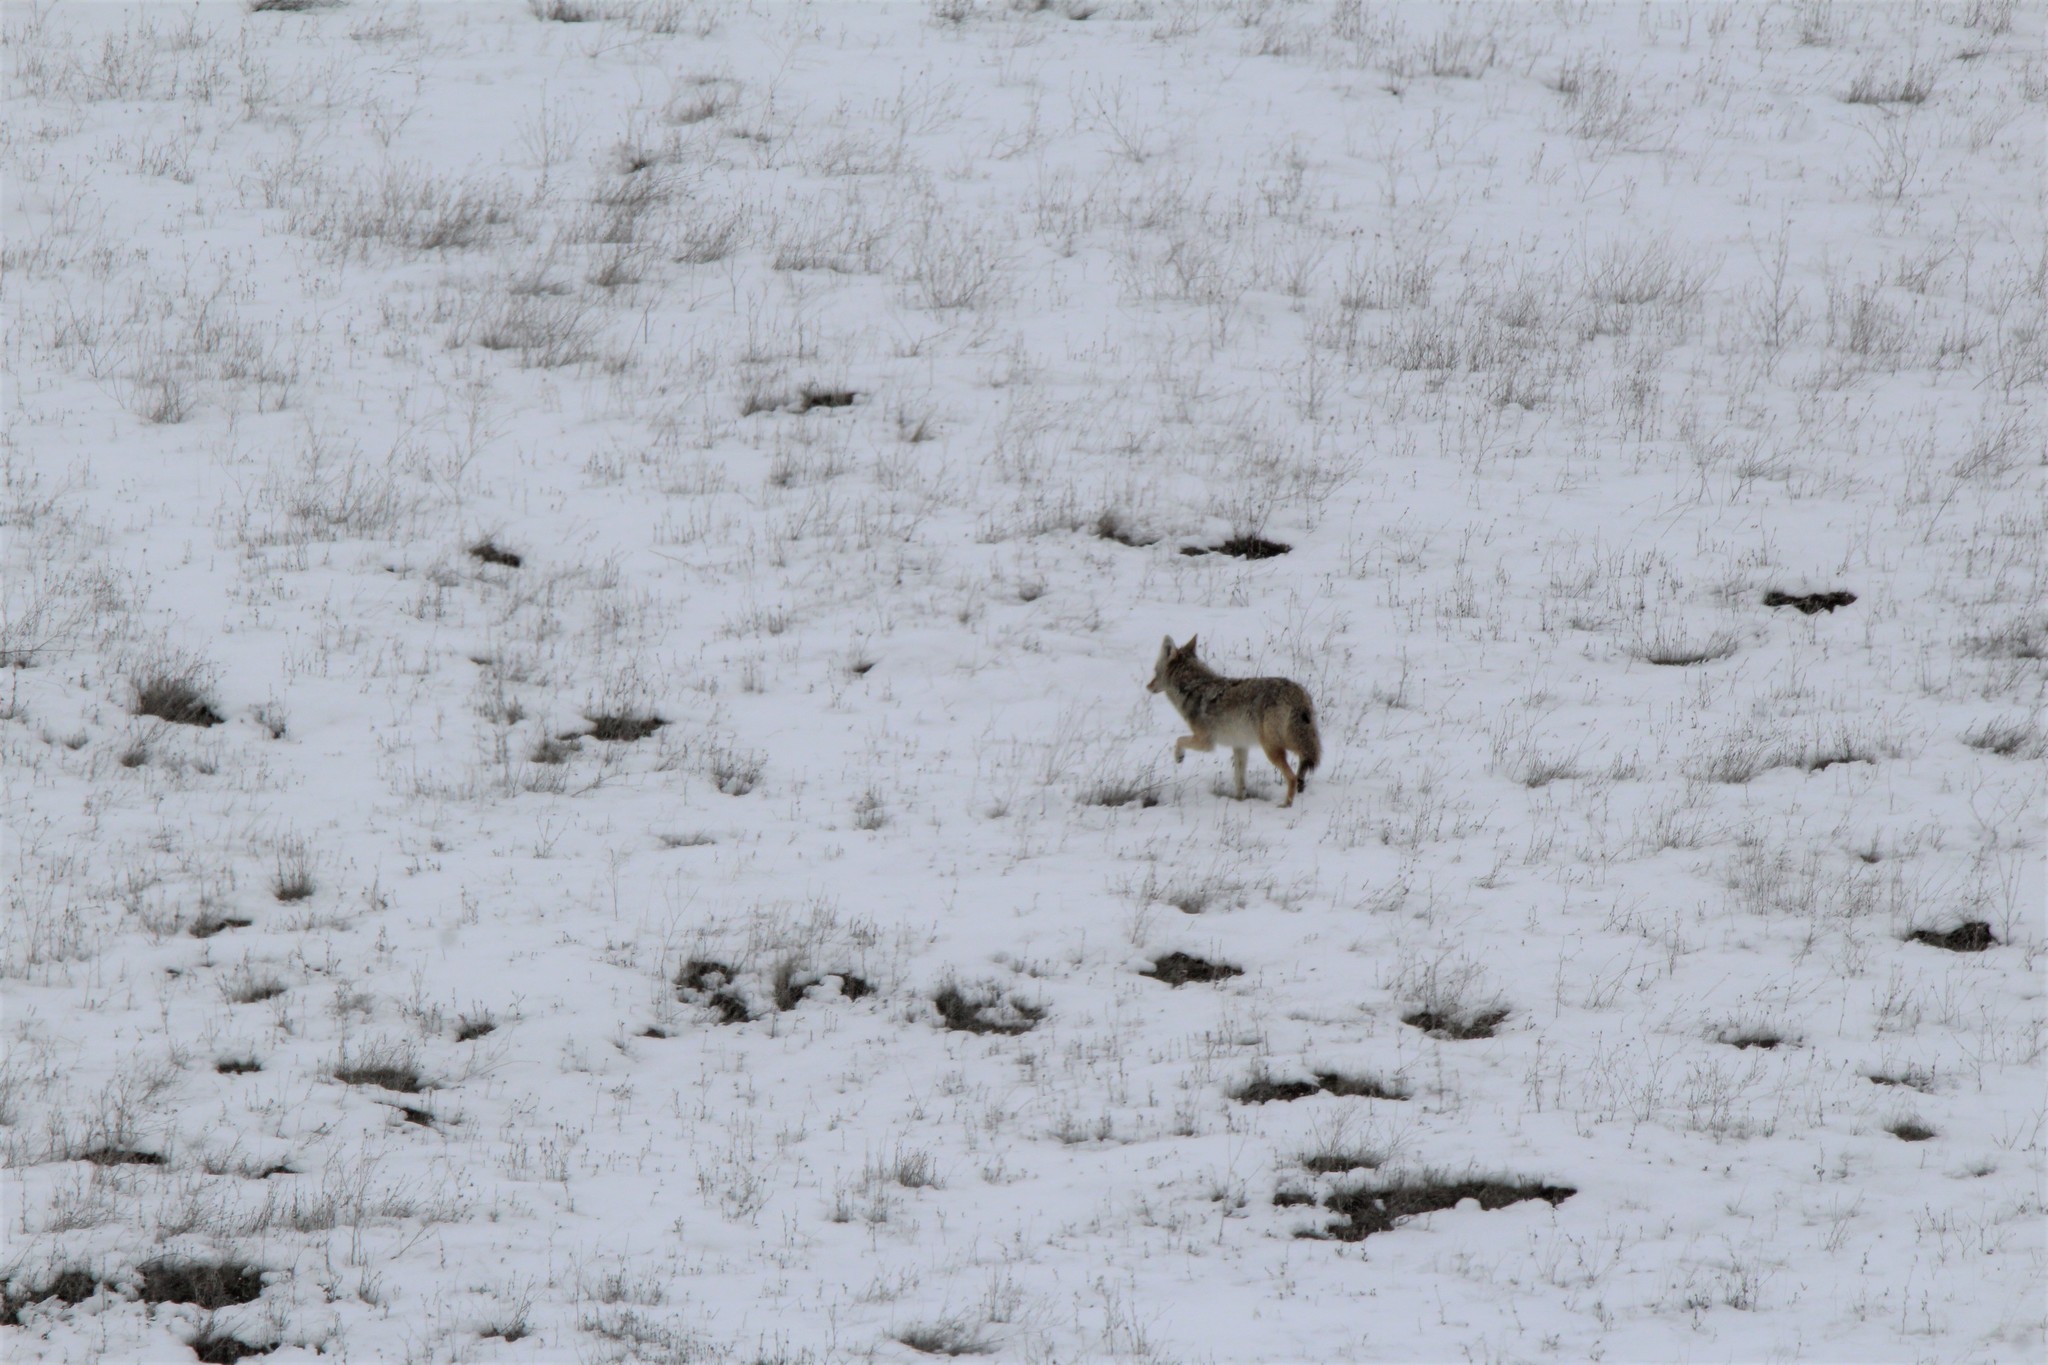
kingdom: Animalia
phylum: Chordata
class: Mammalia
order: Carnivora
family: Canidae
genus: Canis
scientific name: Canis latrans
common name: Coyote
